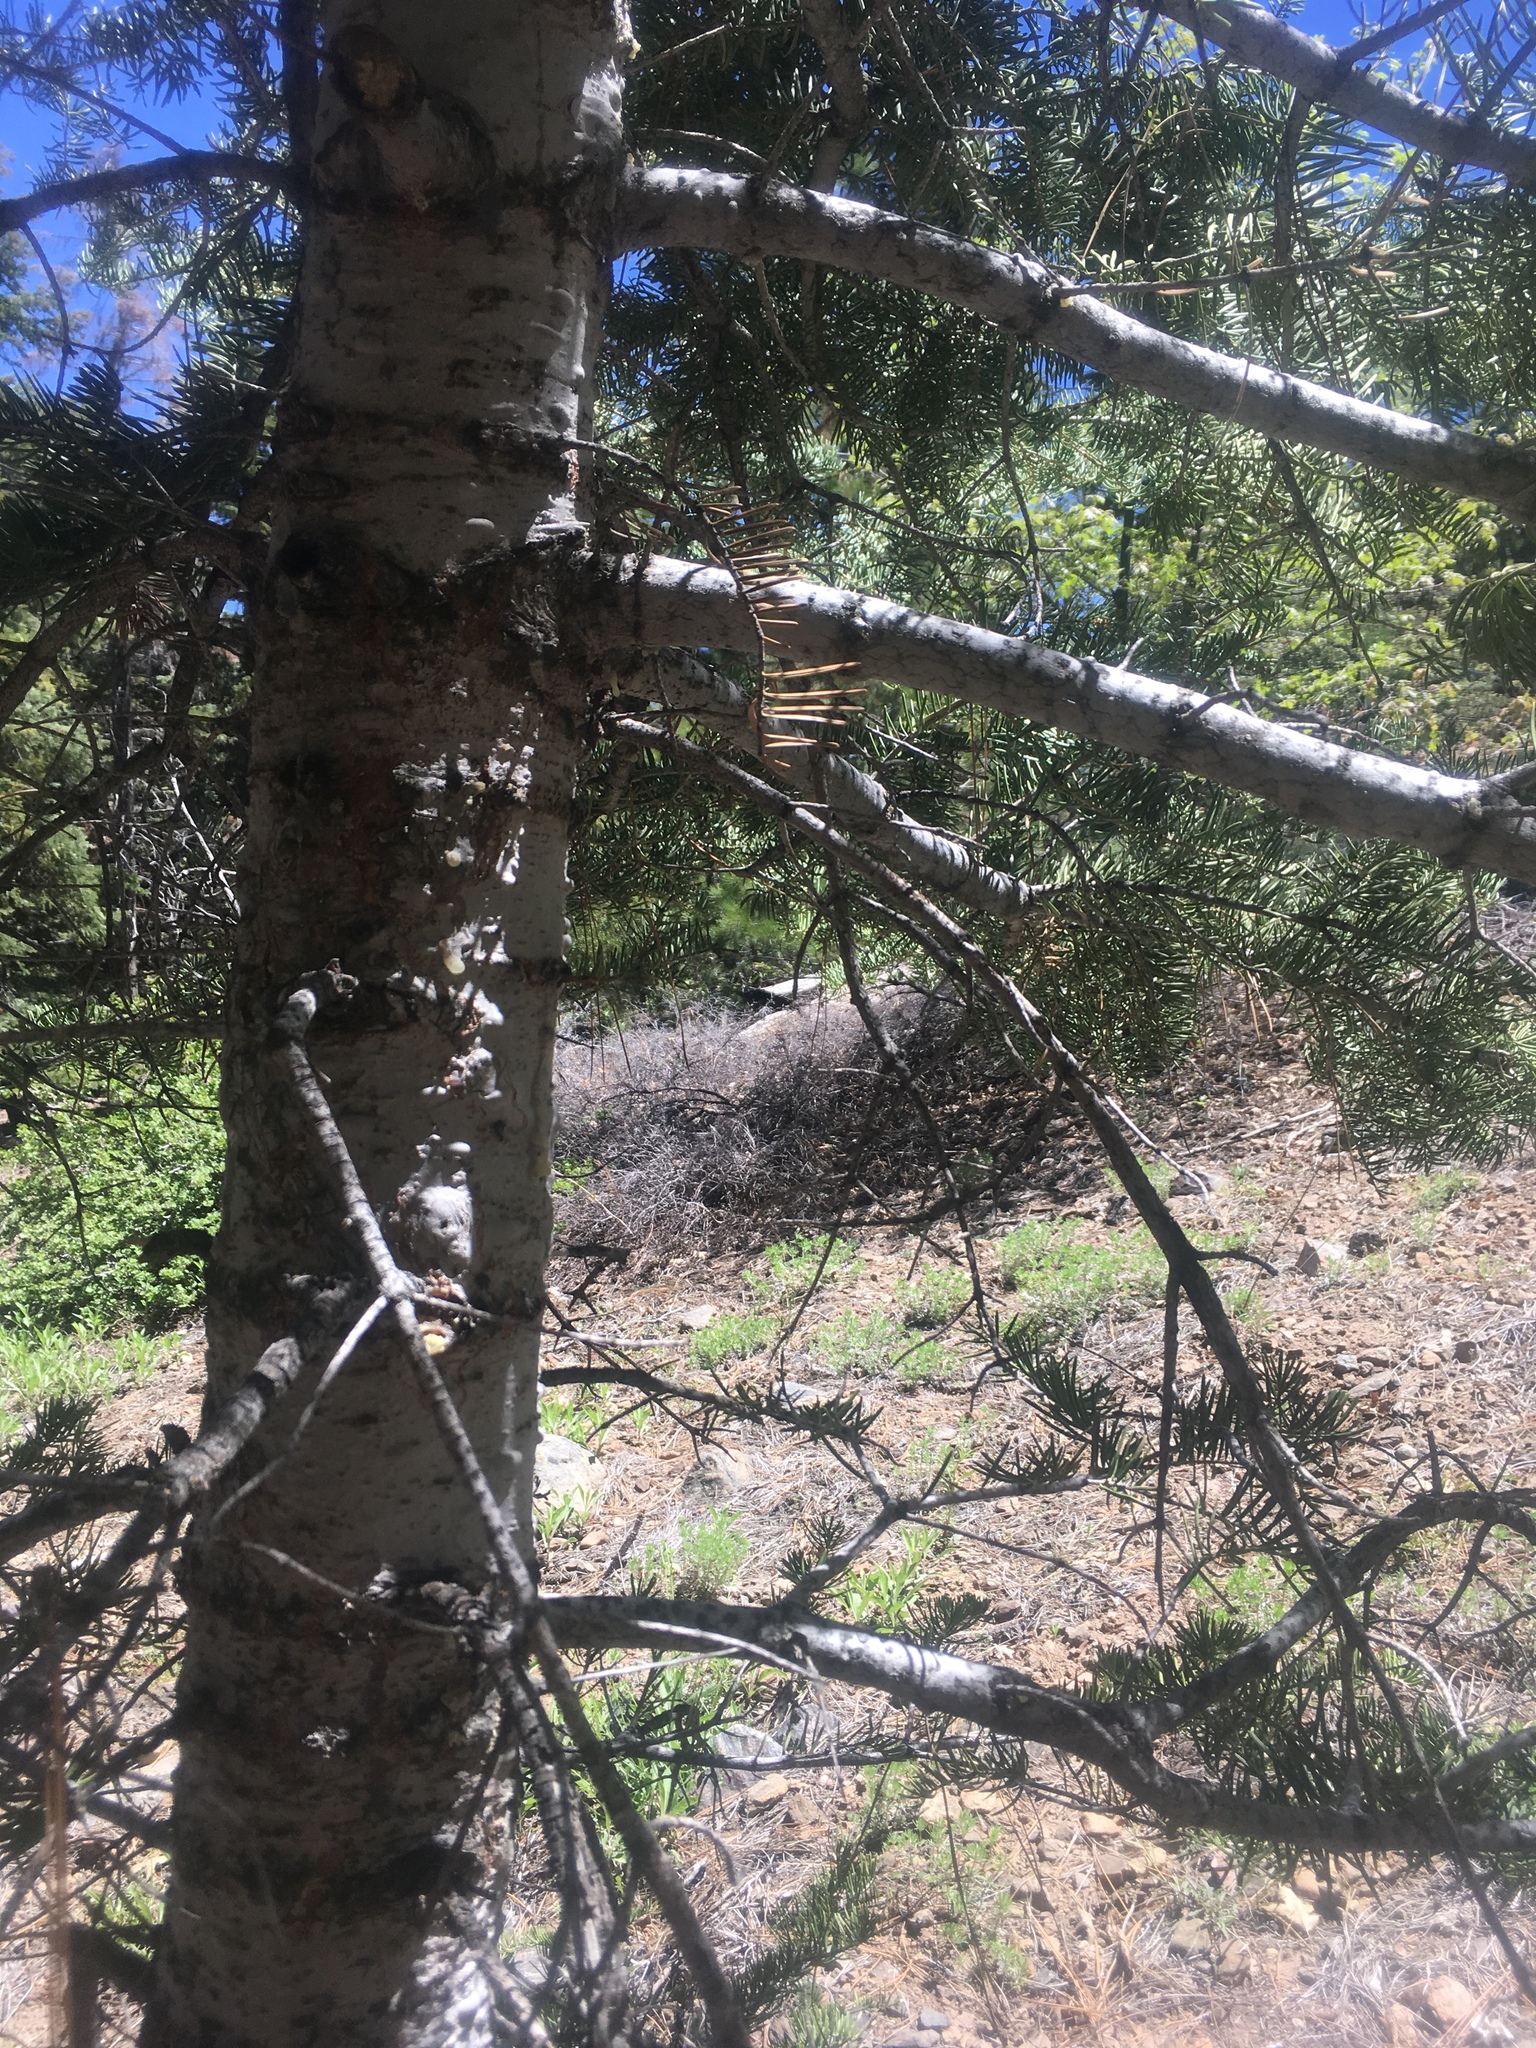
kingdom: Plantae
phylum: Tracheophyta
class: Pinopsida
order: Pinales
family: Pinaceae
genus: Abies
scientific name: Abies concolor
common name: Colorado fir
